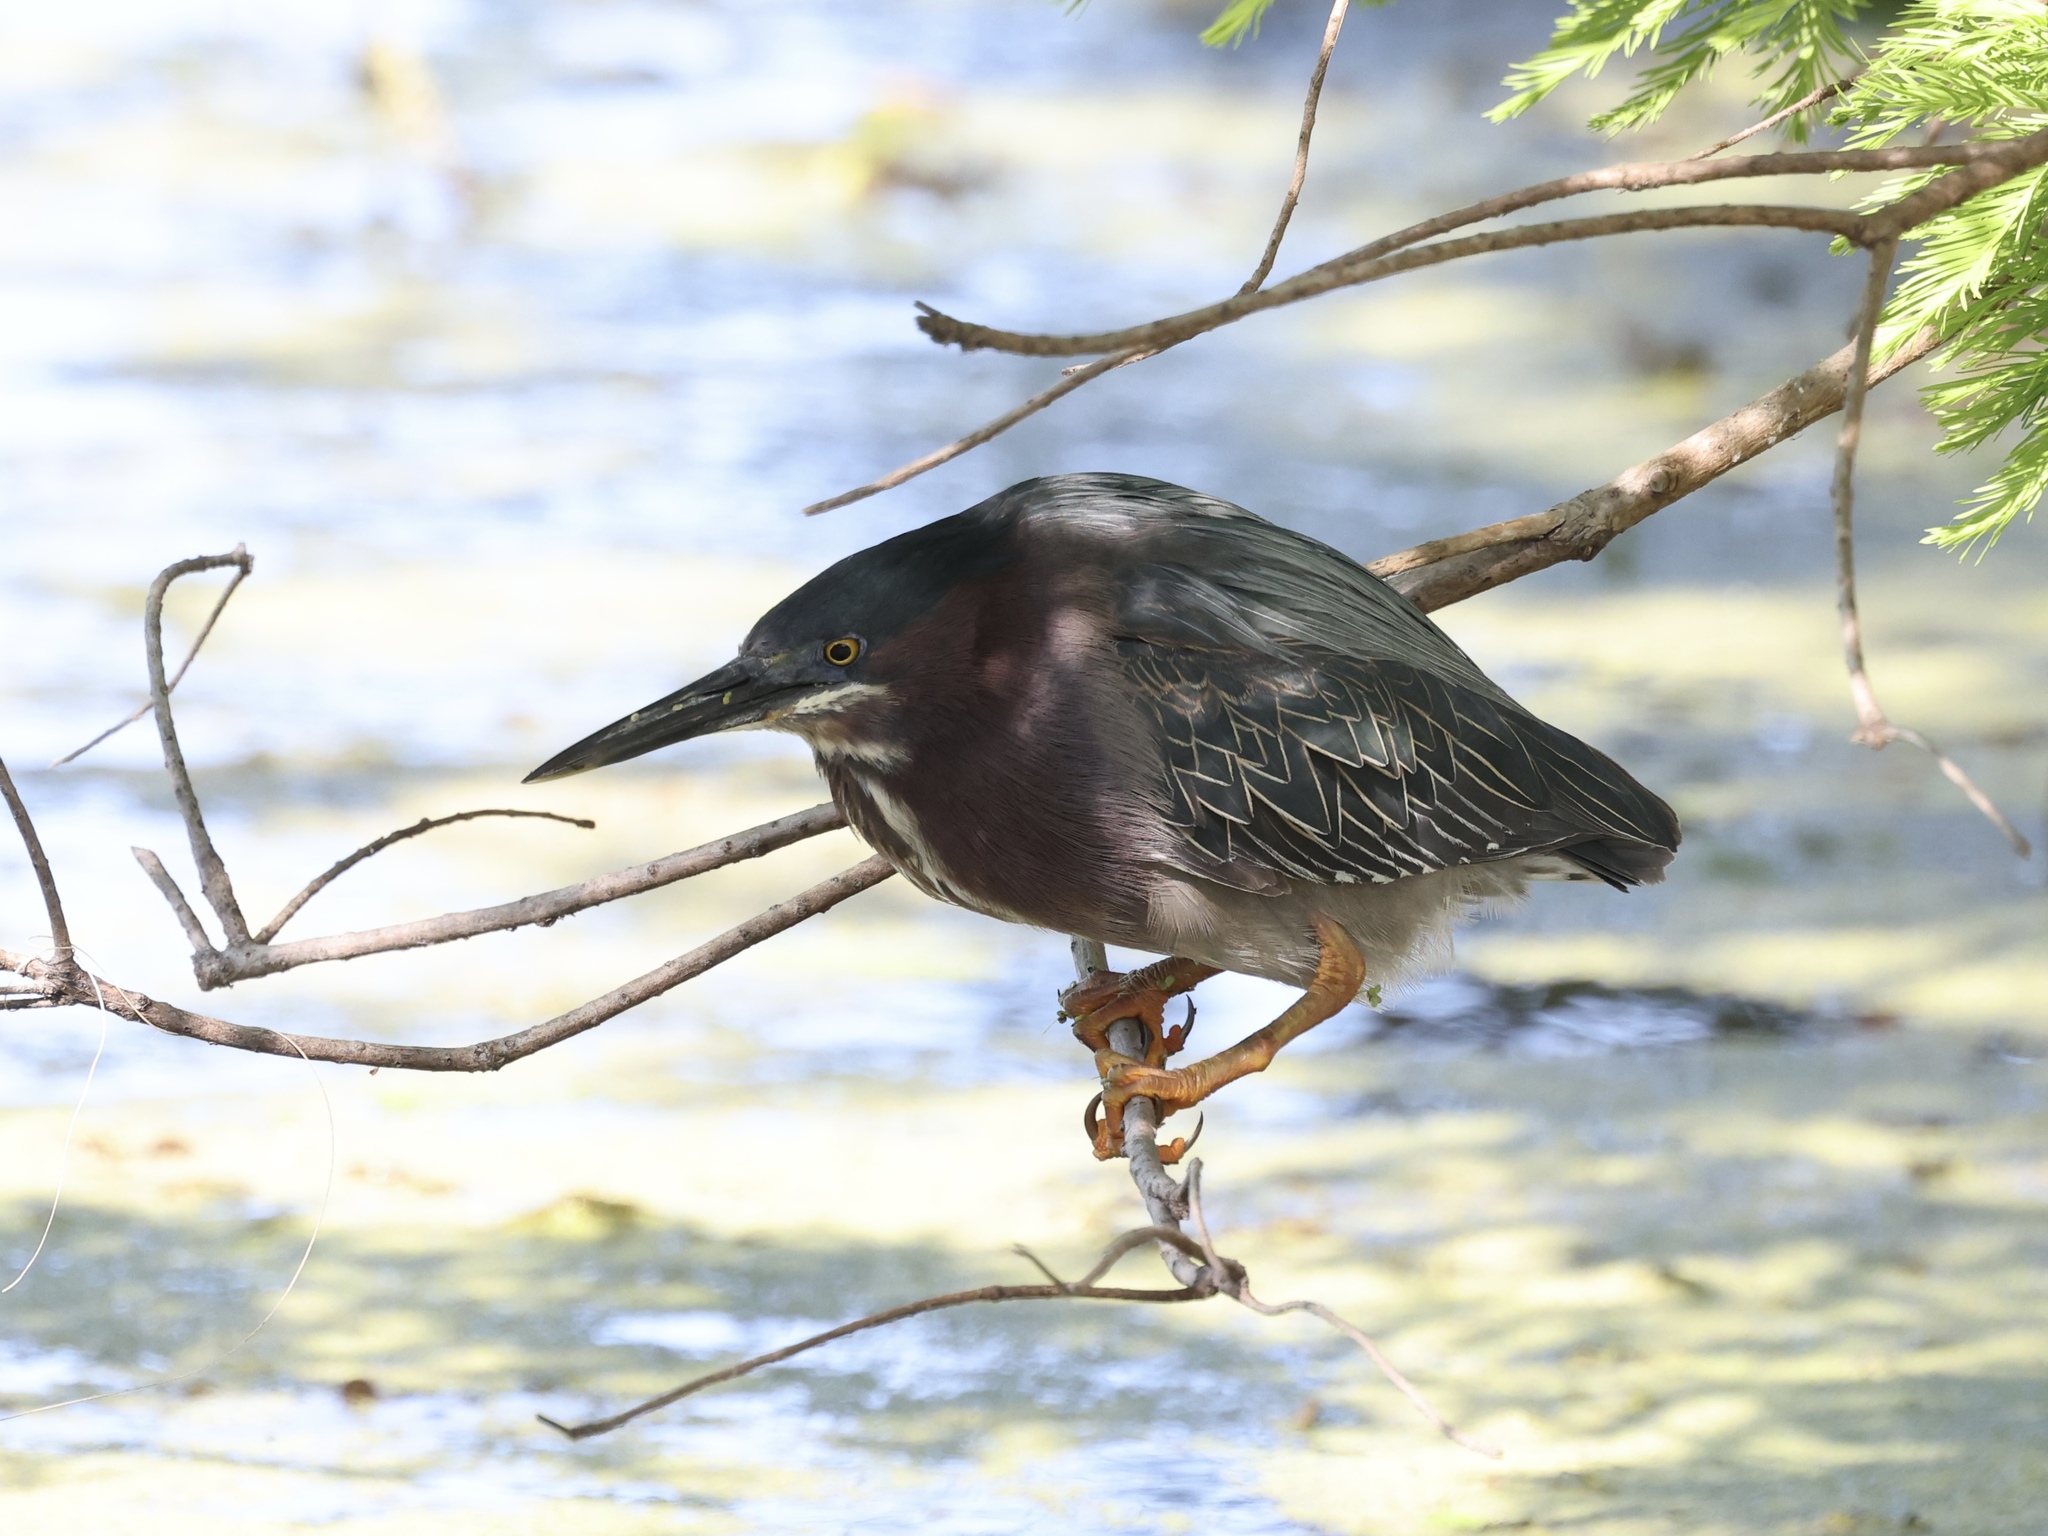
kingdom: Animalia
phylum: Chordata
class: Aves
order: Pelecaniformes
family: Ardeidae
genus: Butorides
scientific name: Butorides virescens
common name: Green heron
